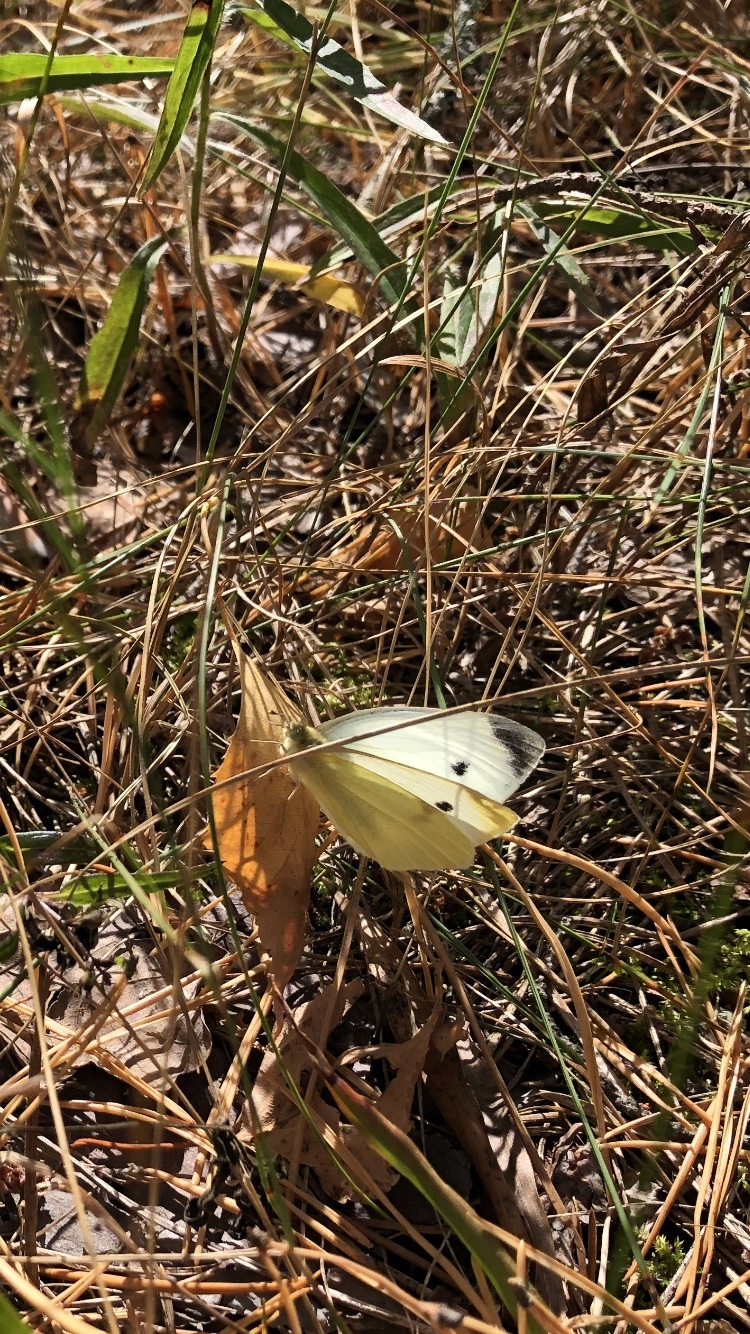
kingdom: Animalia
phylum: Arthropoda
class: Insecta
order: Lepidoptera
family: Pieridae
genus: Pieris
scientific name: Pieris rapae
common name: Small white
